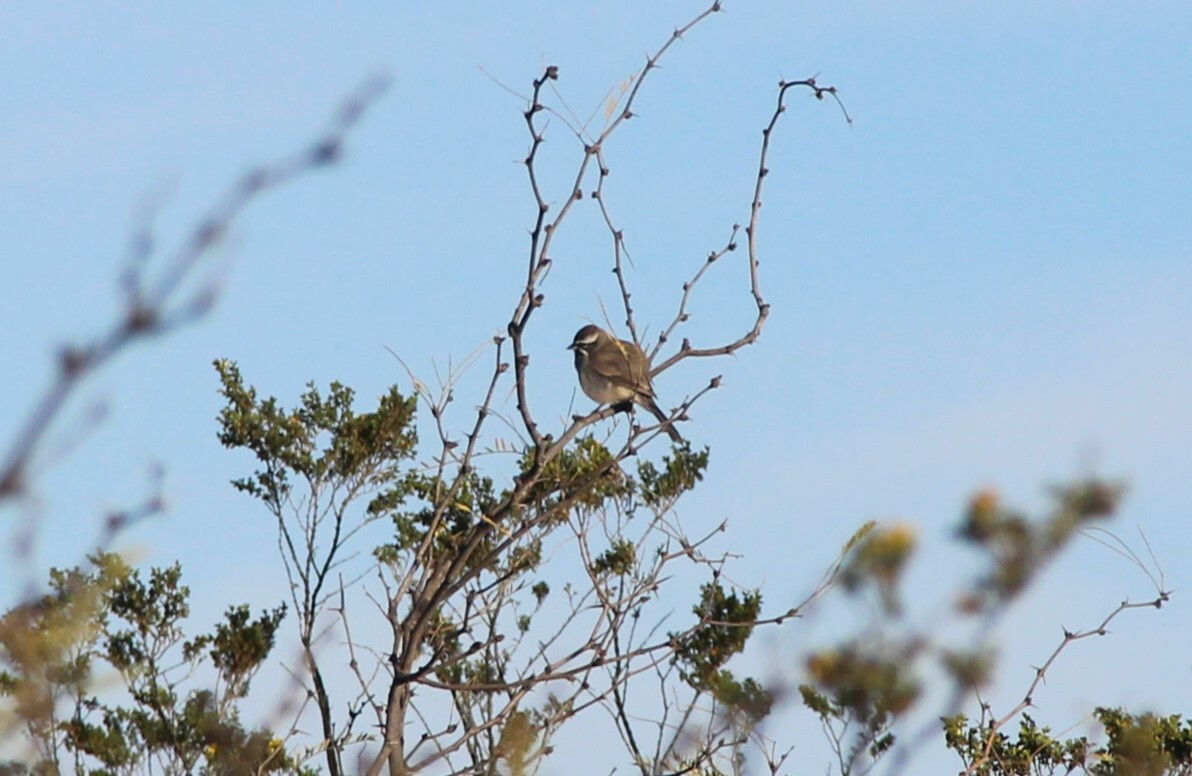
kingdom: Animalia
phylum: Chordata
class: Aves
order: Passeriformes
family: Passerellidae
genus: Amphispiza
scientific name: Amphispiza bilineata
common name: Black-throated sparrow
